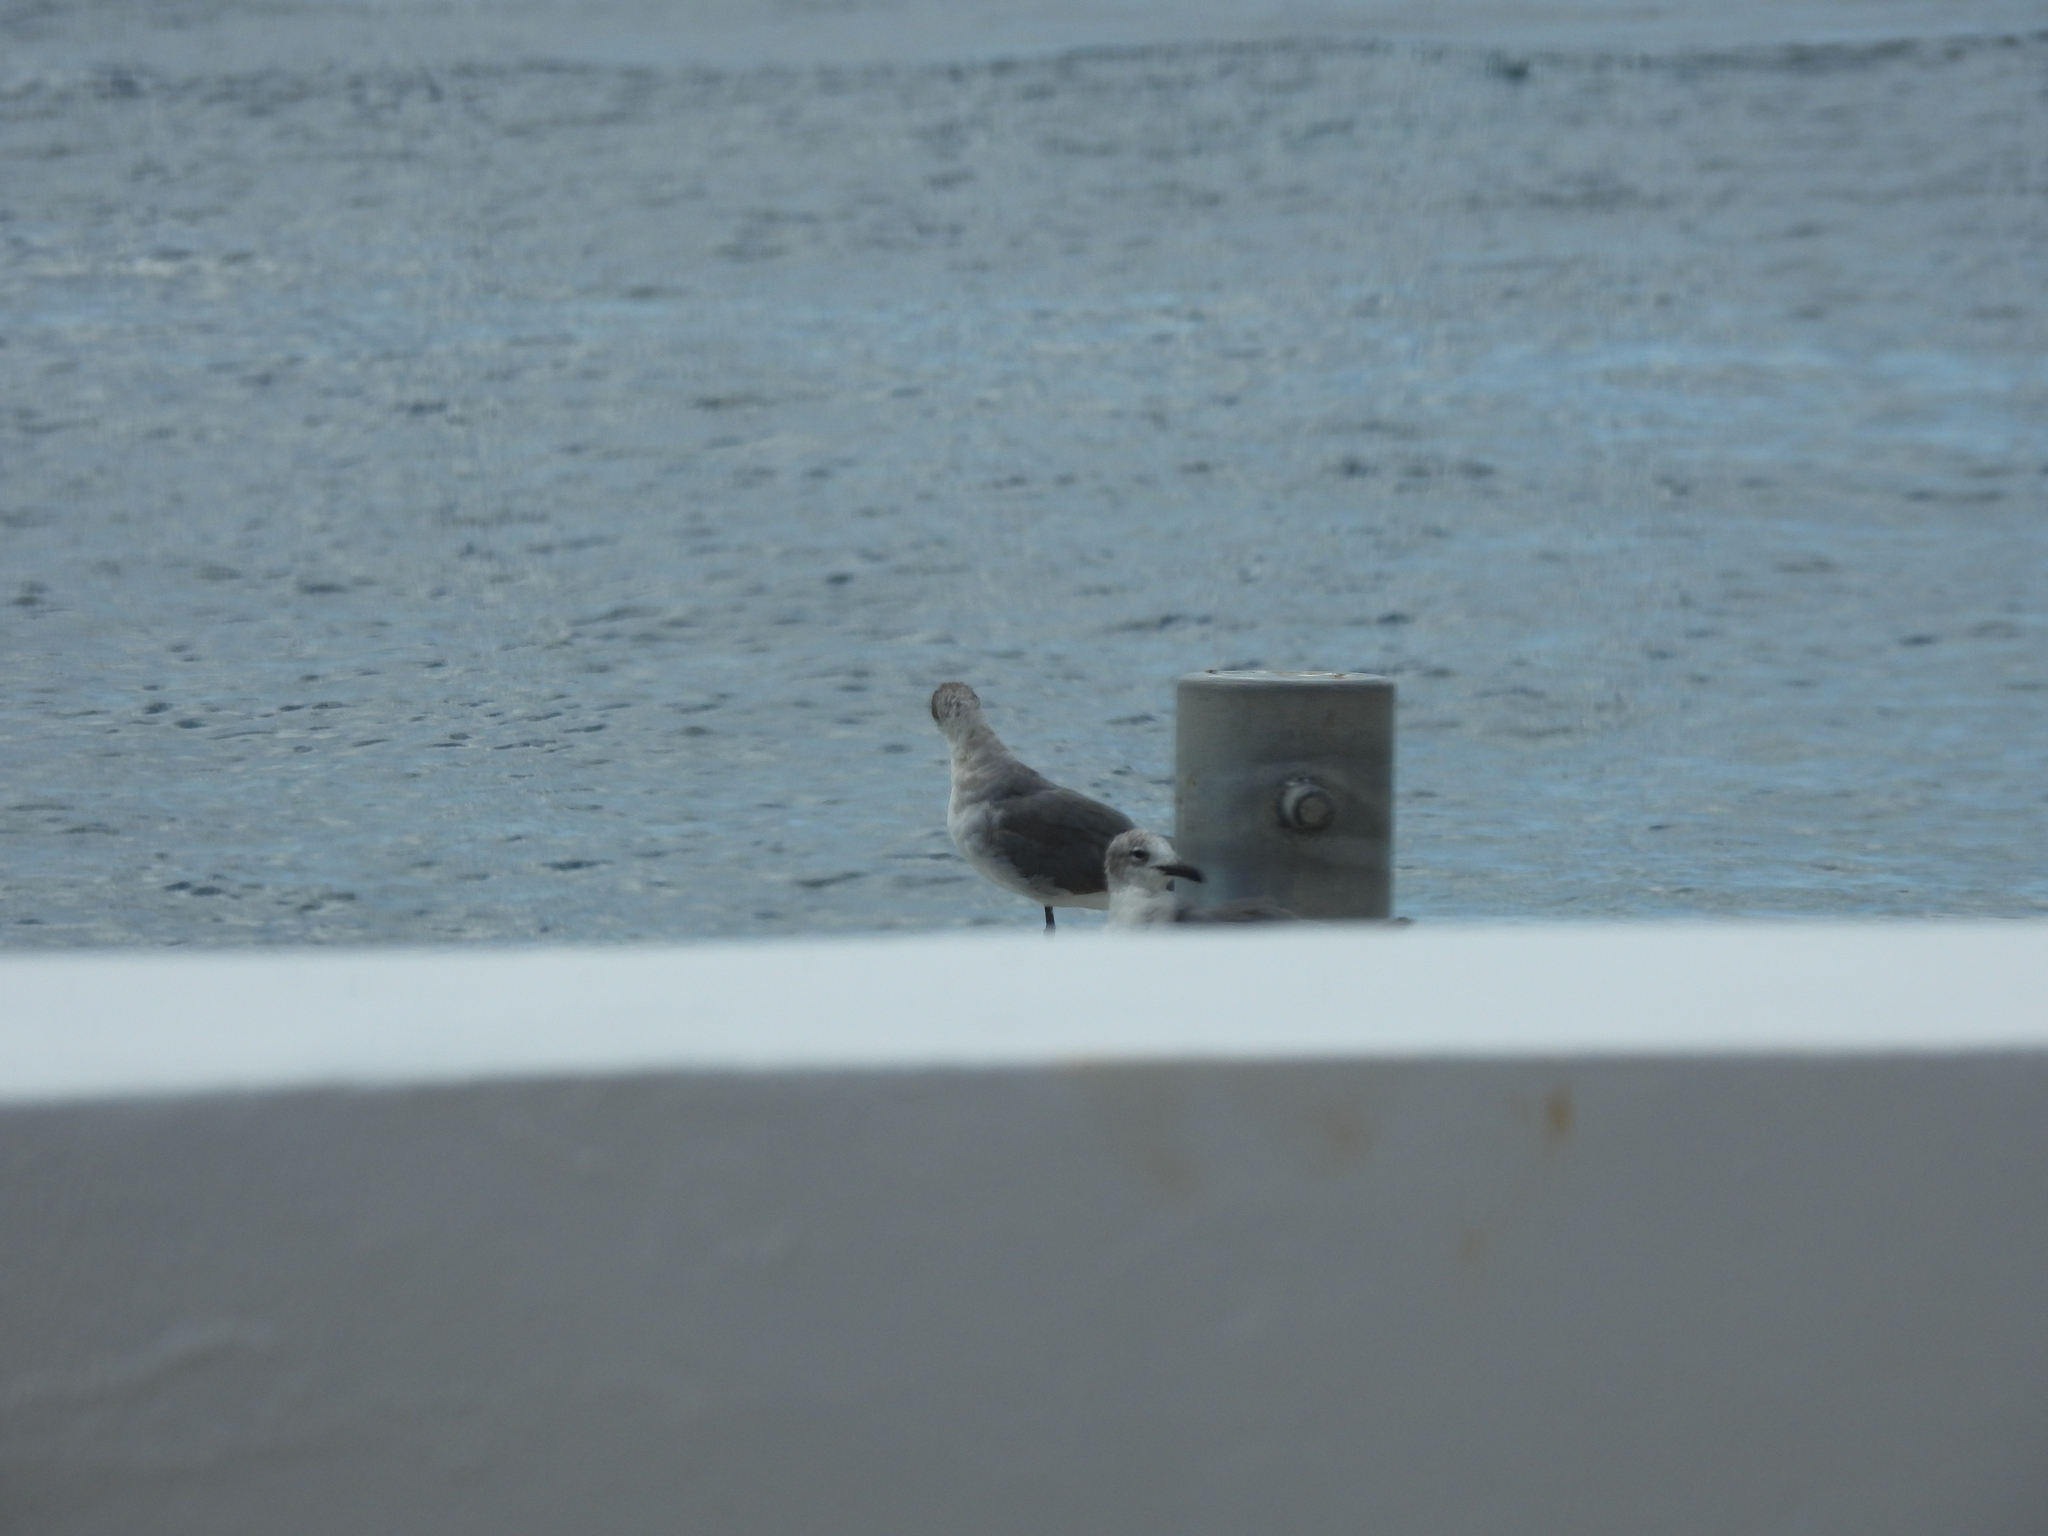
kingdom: Animalia
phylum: Chordata
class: Aves
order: Charadriiformes
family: Laridae
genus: Leucophaeus
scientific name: Leucophaeus atricilla
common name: Laughing gull
